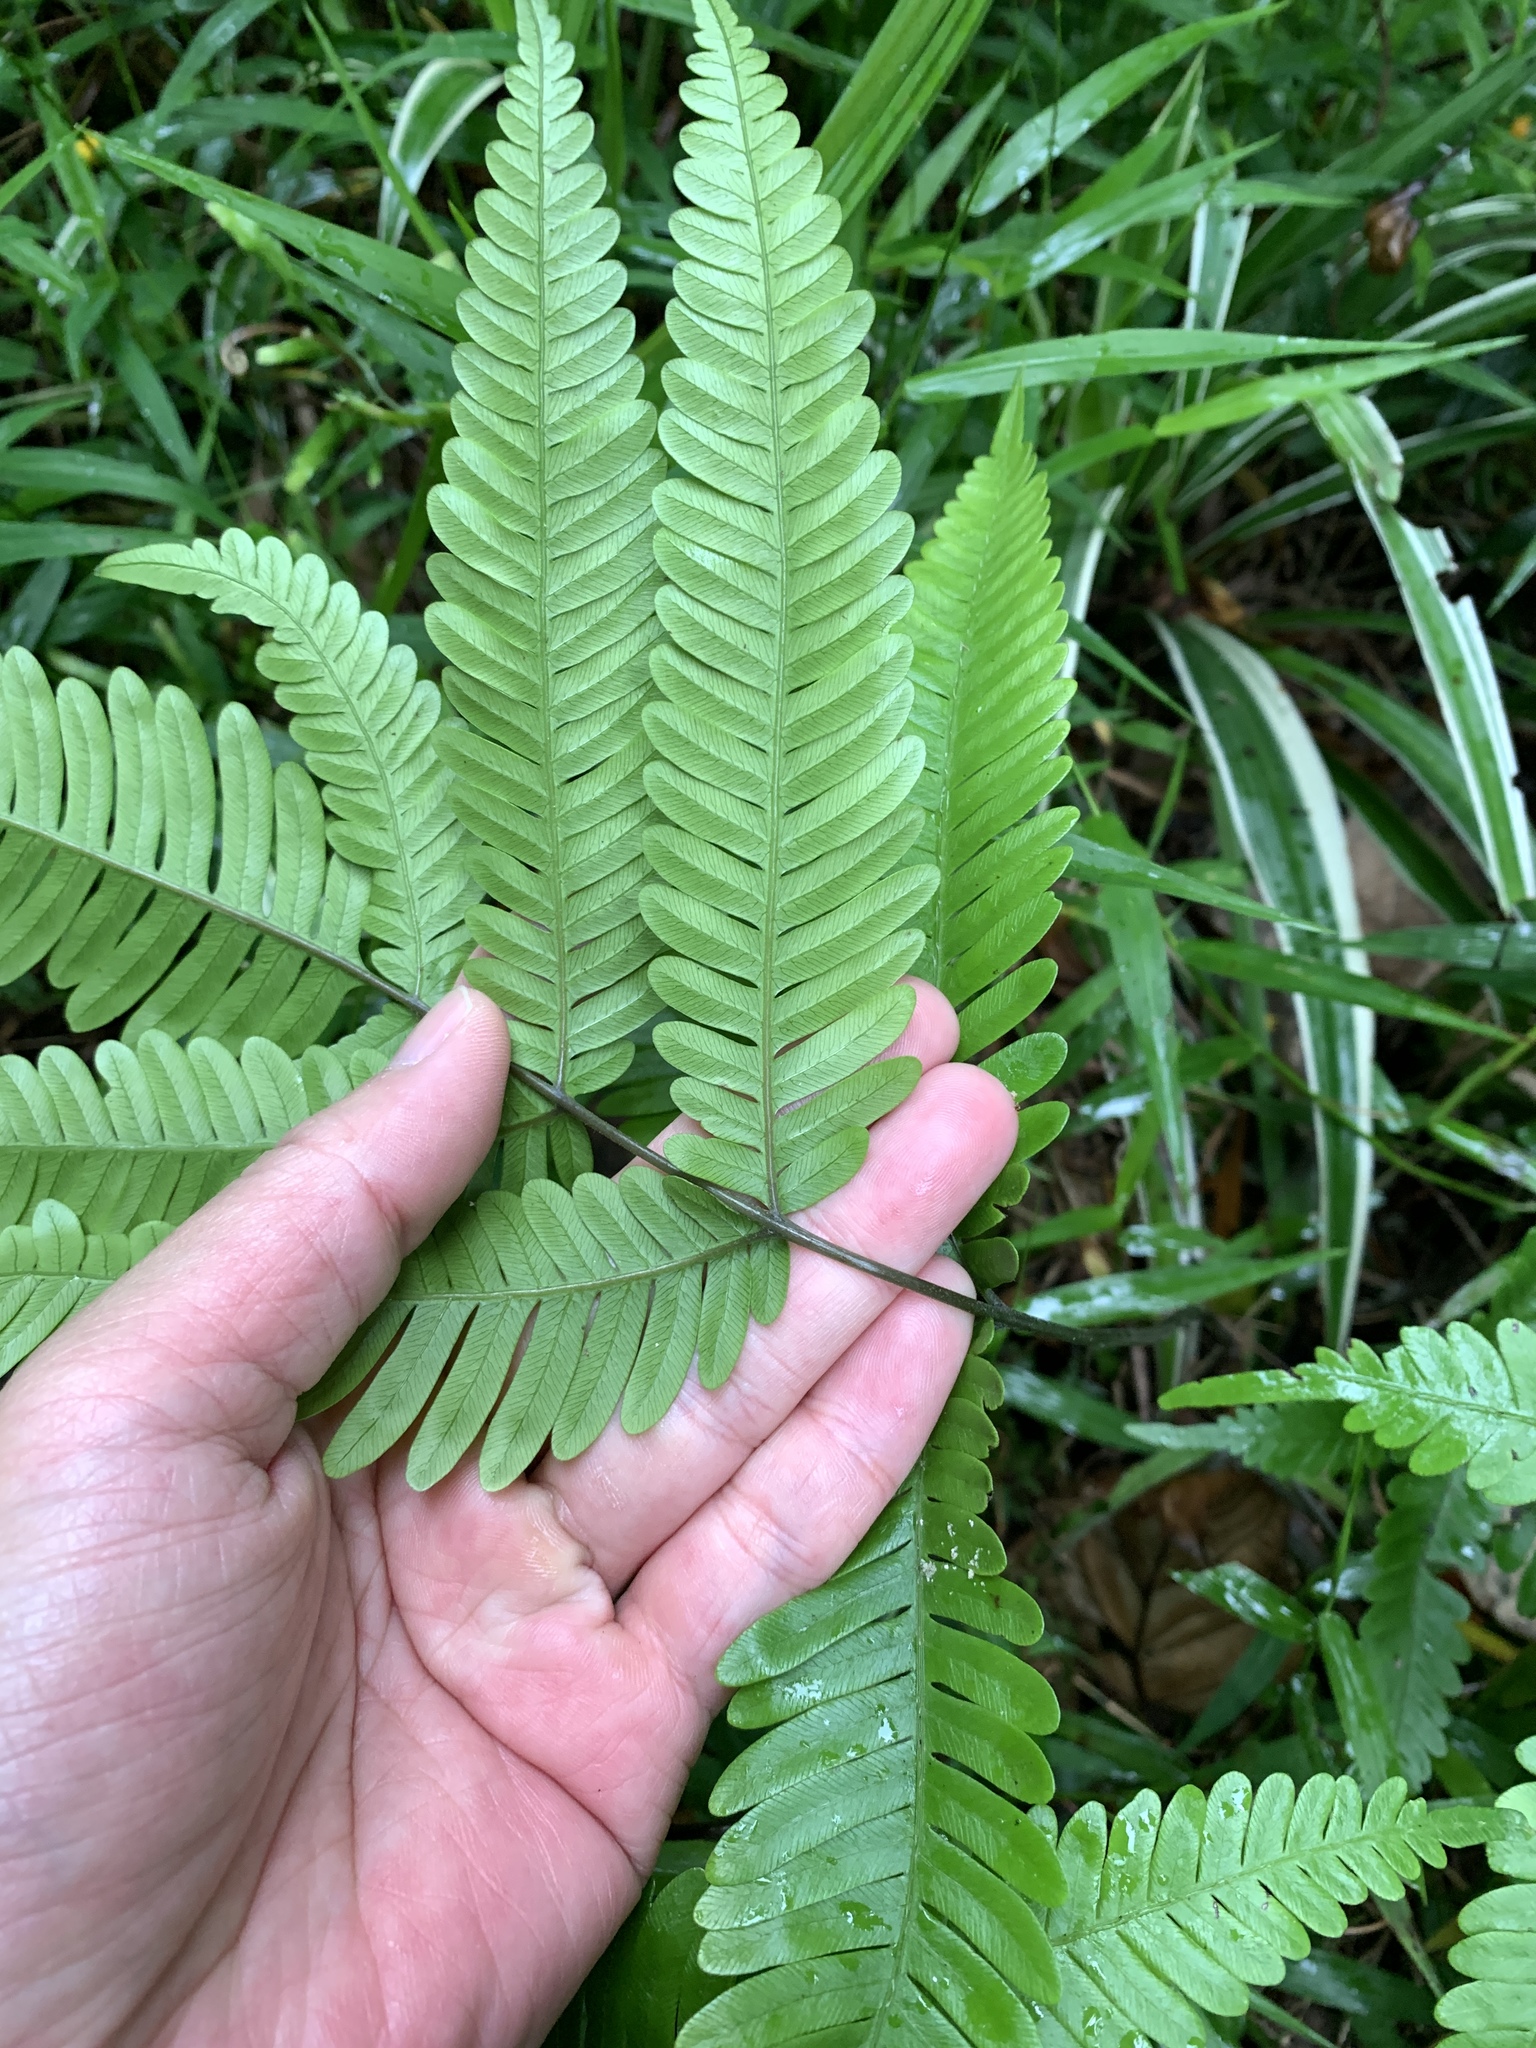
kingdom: Plantae
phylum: Tracheophyta
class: Polypodiopsida
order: Polypodiales
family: Pteridaceae
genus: Pteris
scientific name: Pteris fauriei
